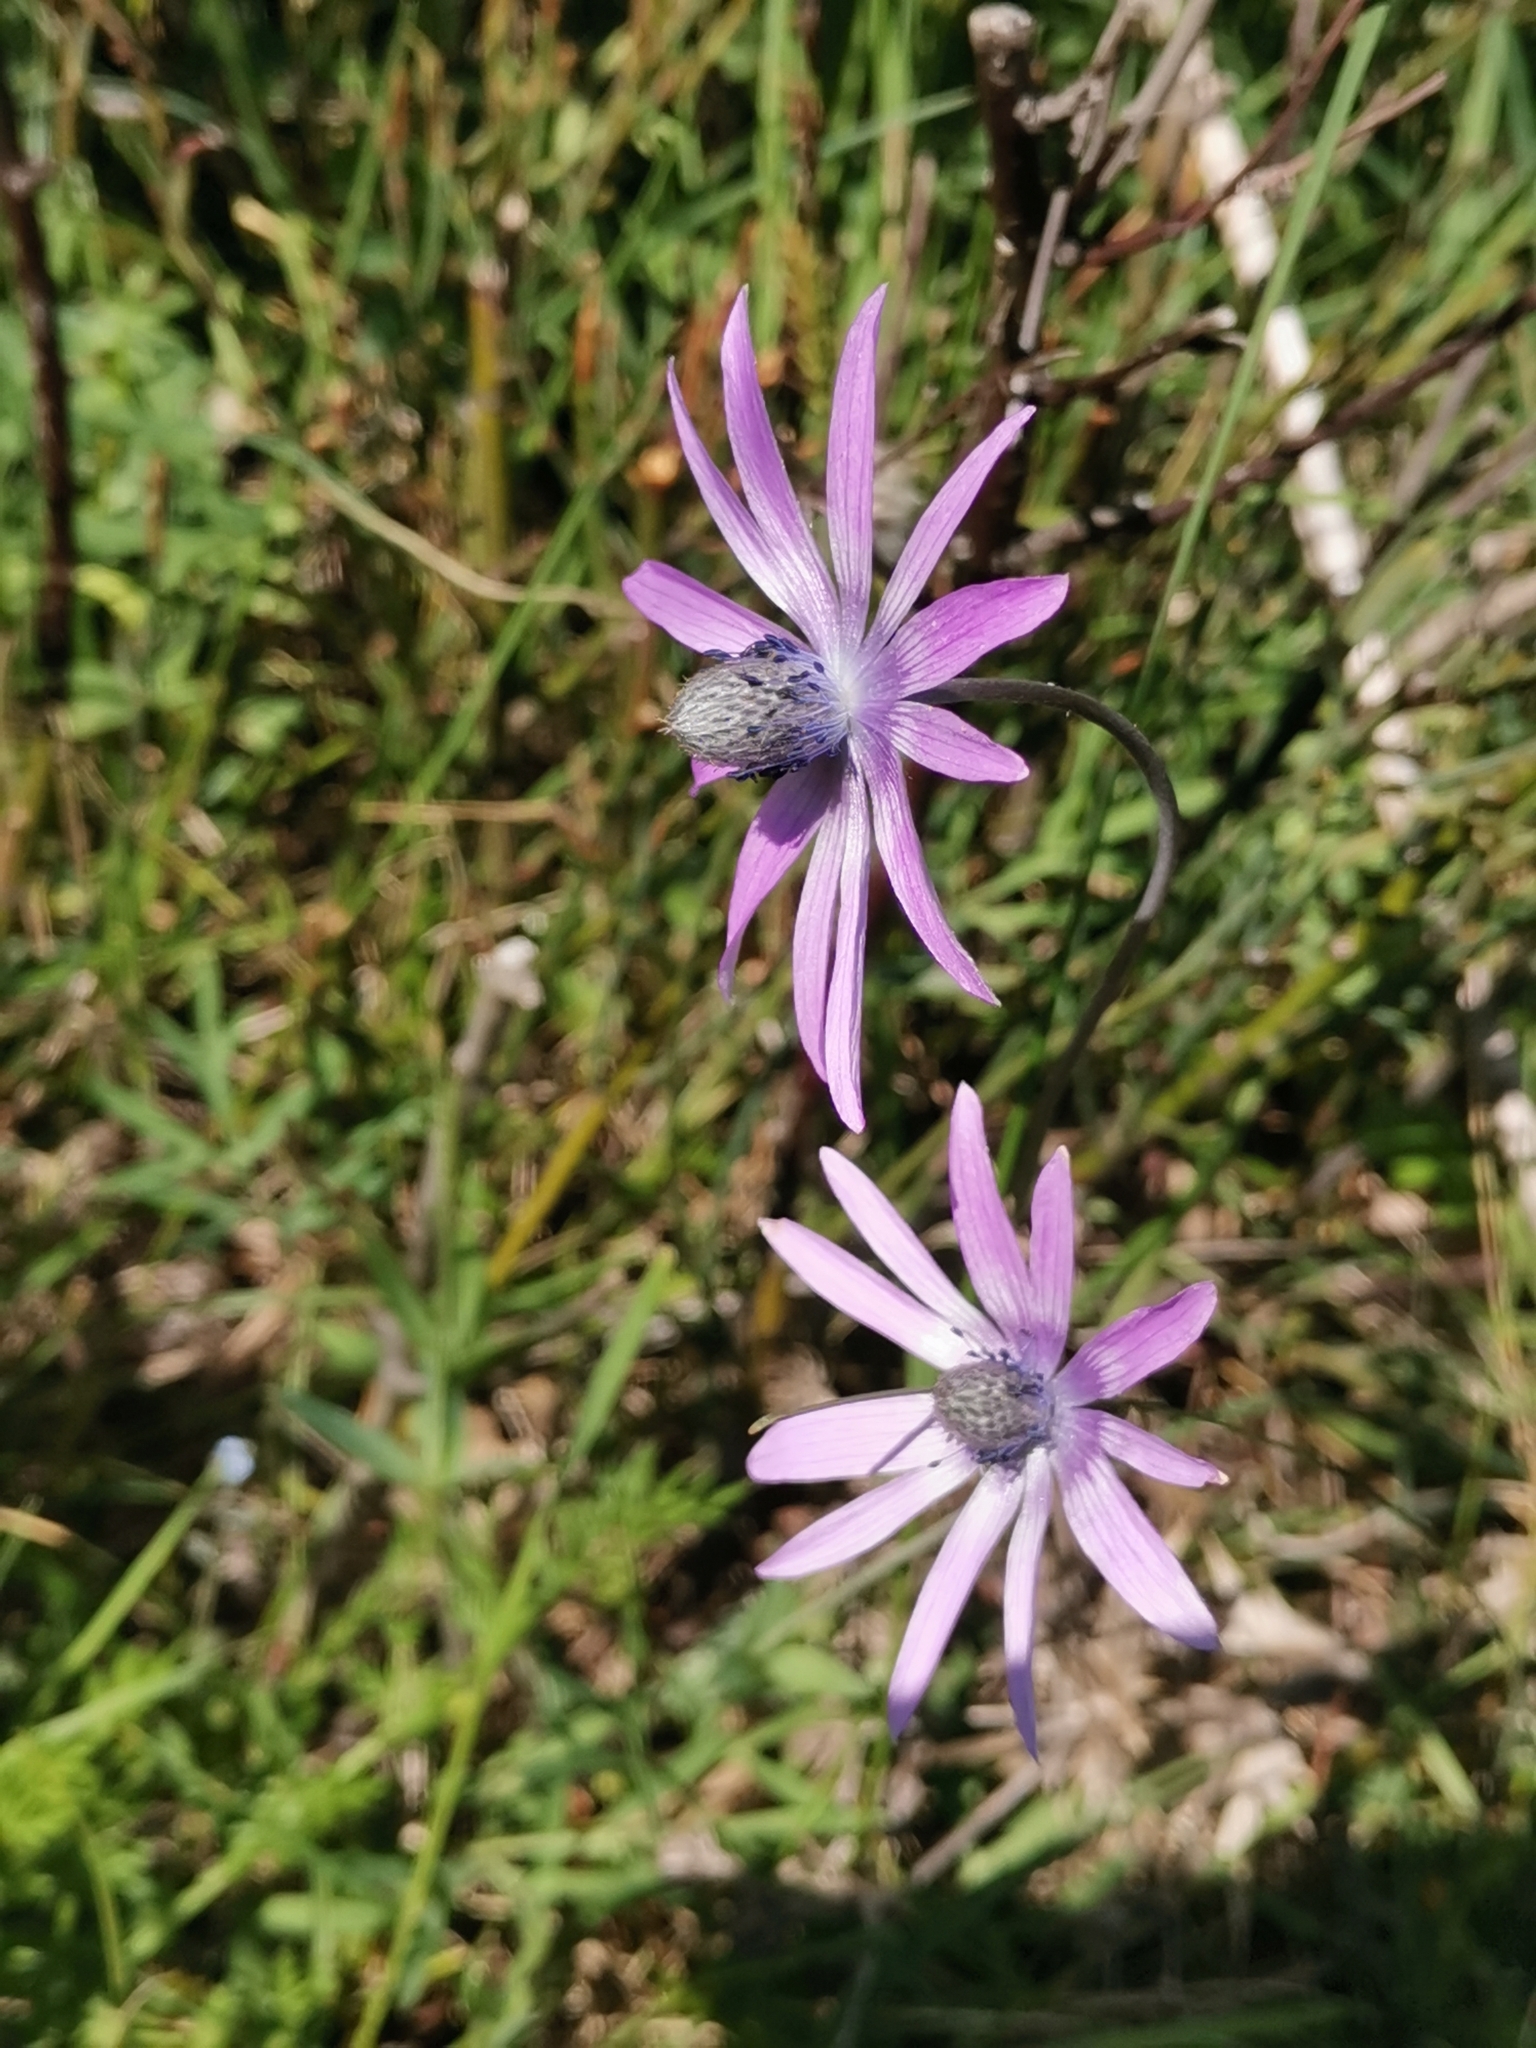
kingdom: Plantae
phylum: Tracheophyta
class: Magnoliopsida
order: Ranunculales
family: Ranunculaceae
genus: Anemone
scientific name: Anemone hortensis
